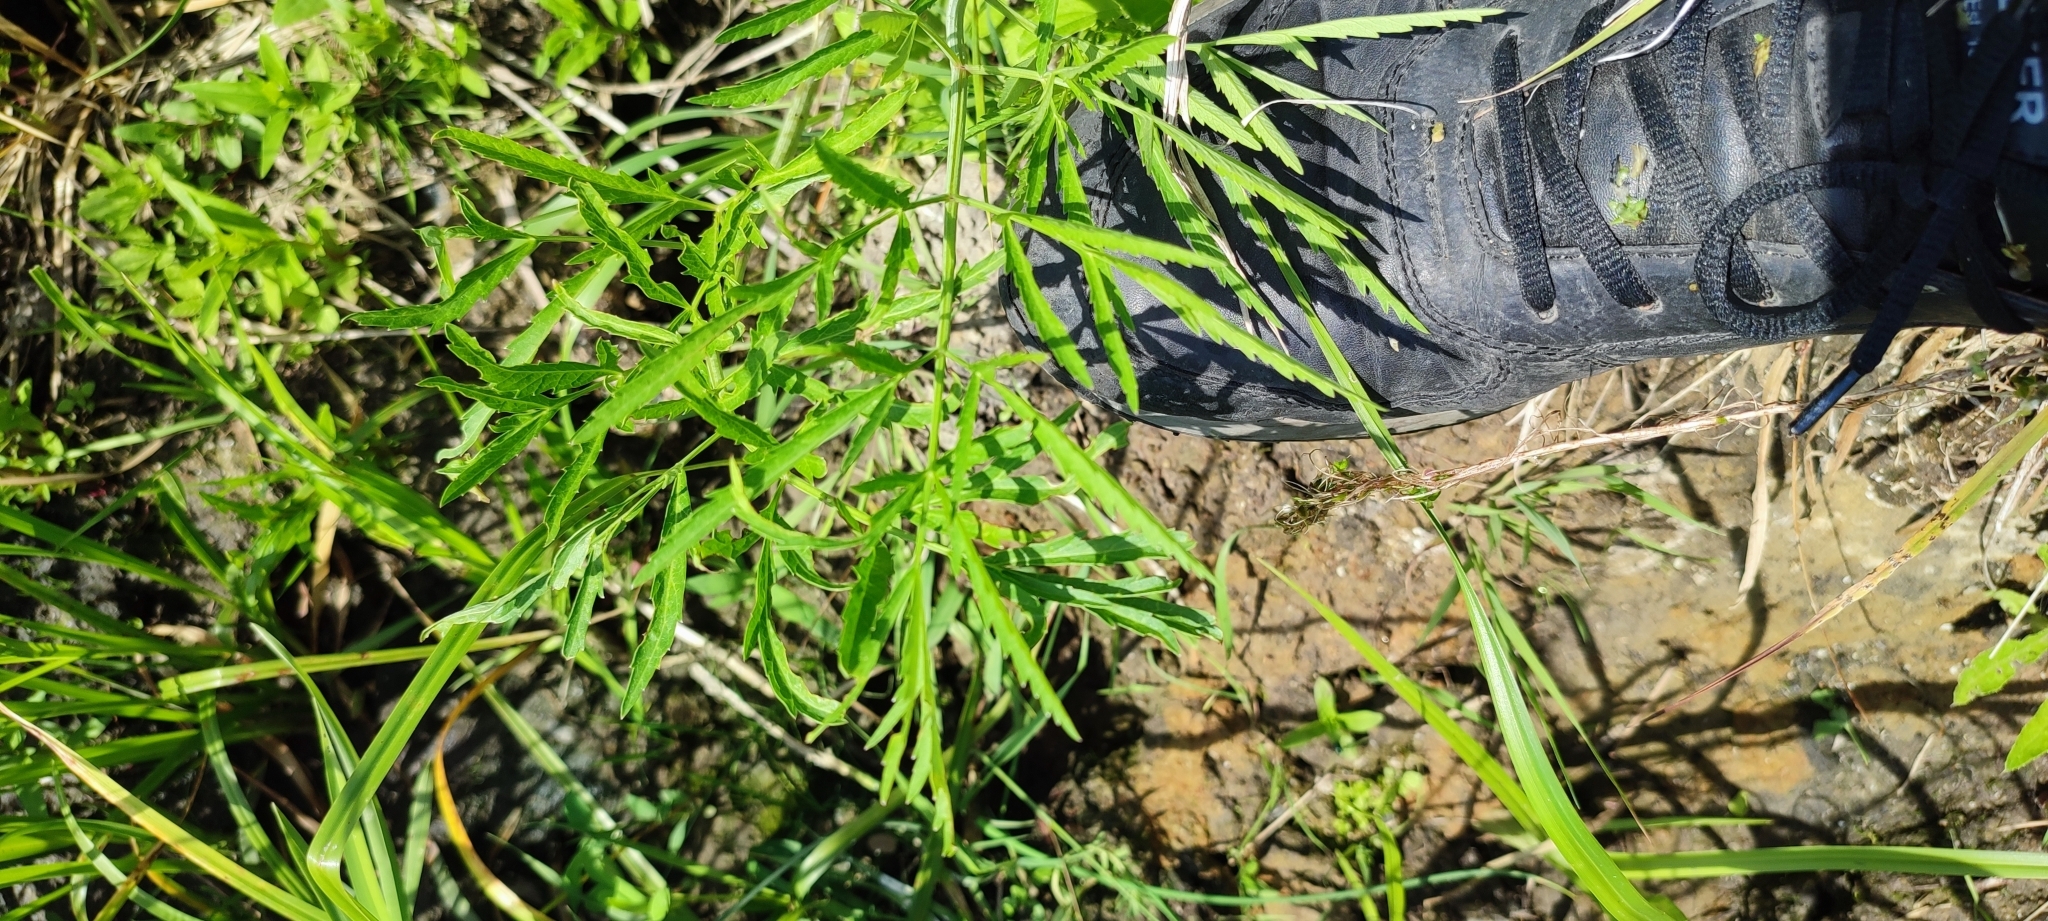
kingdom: Plantae
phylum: Tracheophyta
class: Magnoliopsida
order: Apiales
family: Apiaceae
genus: Cicuta
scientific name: Cicuta virosa
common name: Cowbane
